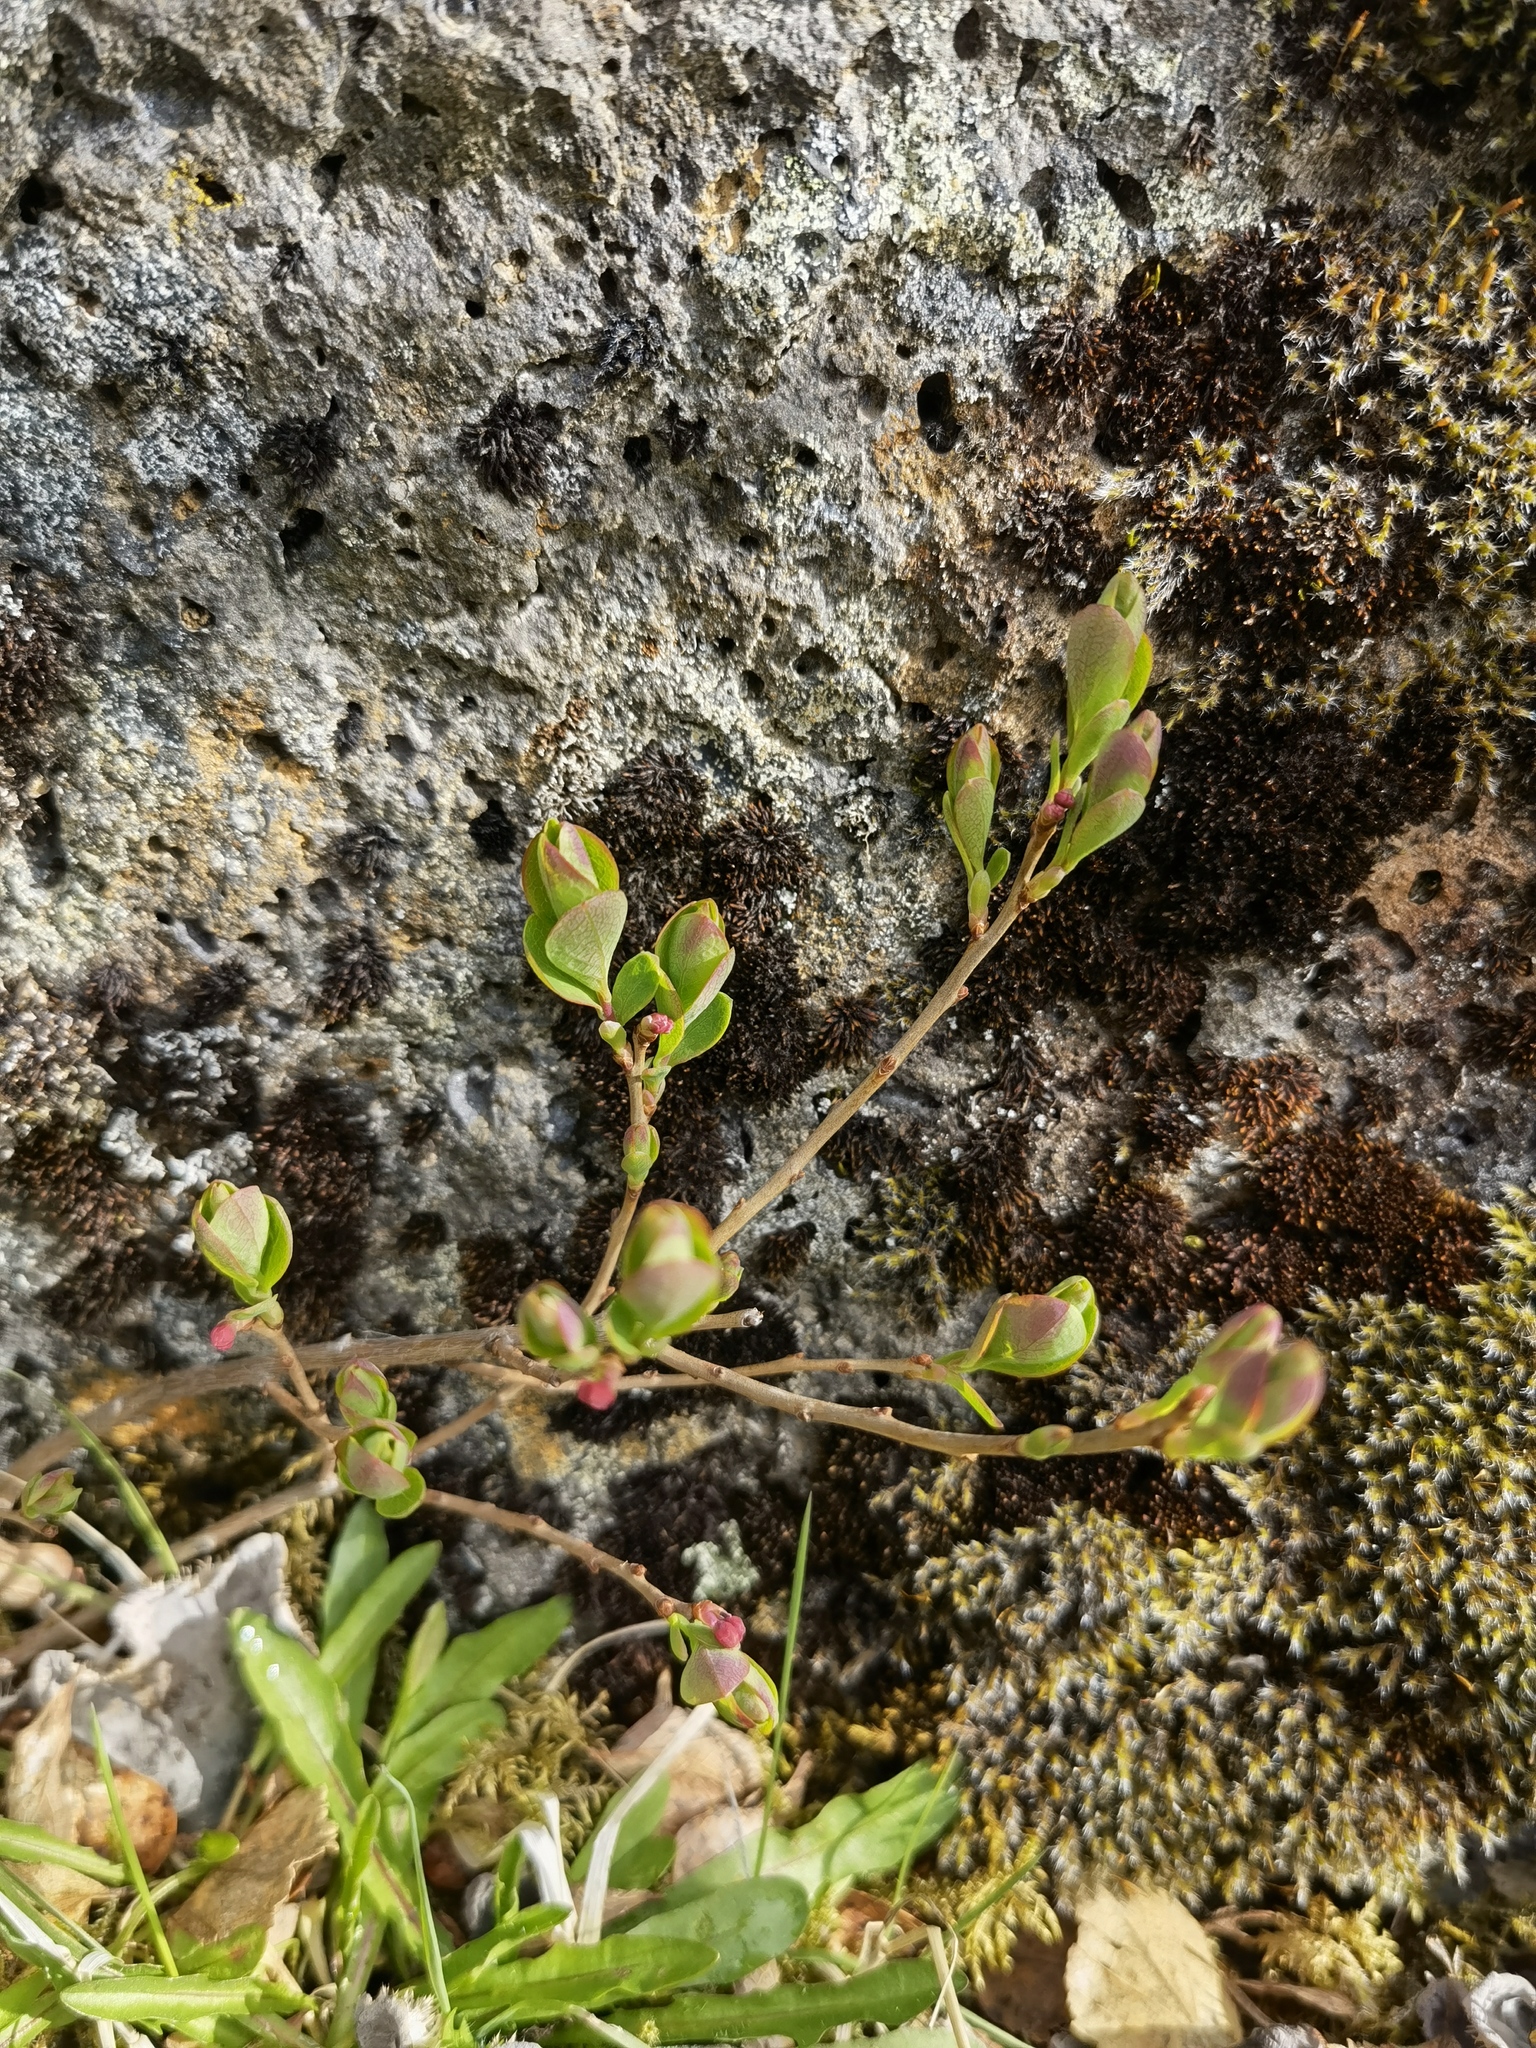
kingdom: Plantae
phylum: Tracheophyta
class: Magnoliopsida
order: Ericales
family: Ericaceae
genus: Vaccinium
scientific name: Vaccinium myrtillus
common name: Bilberry
